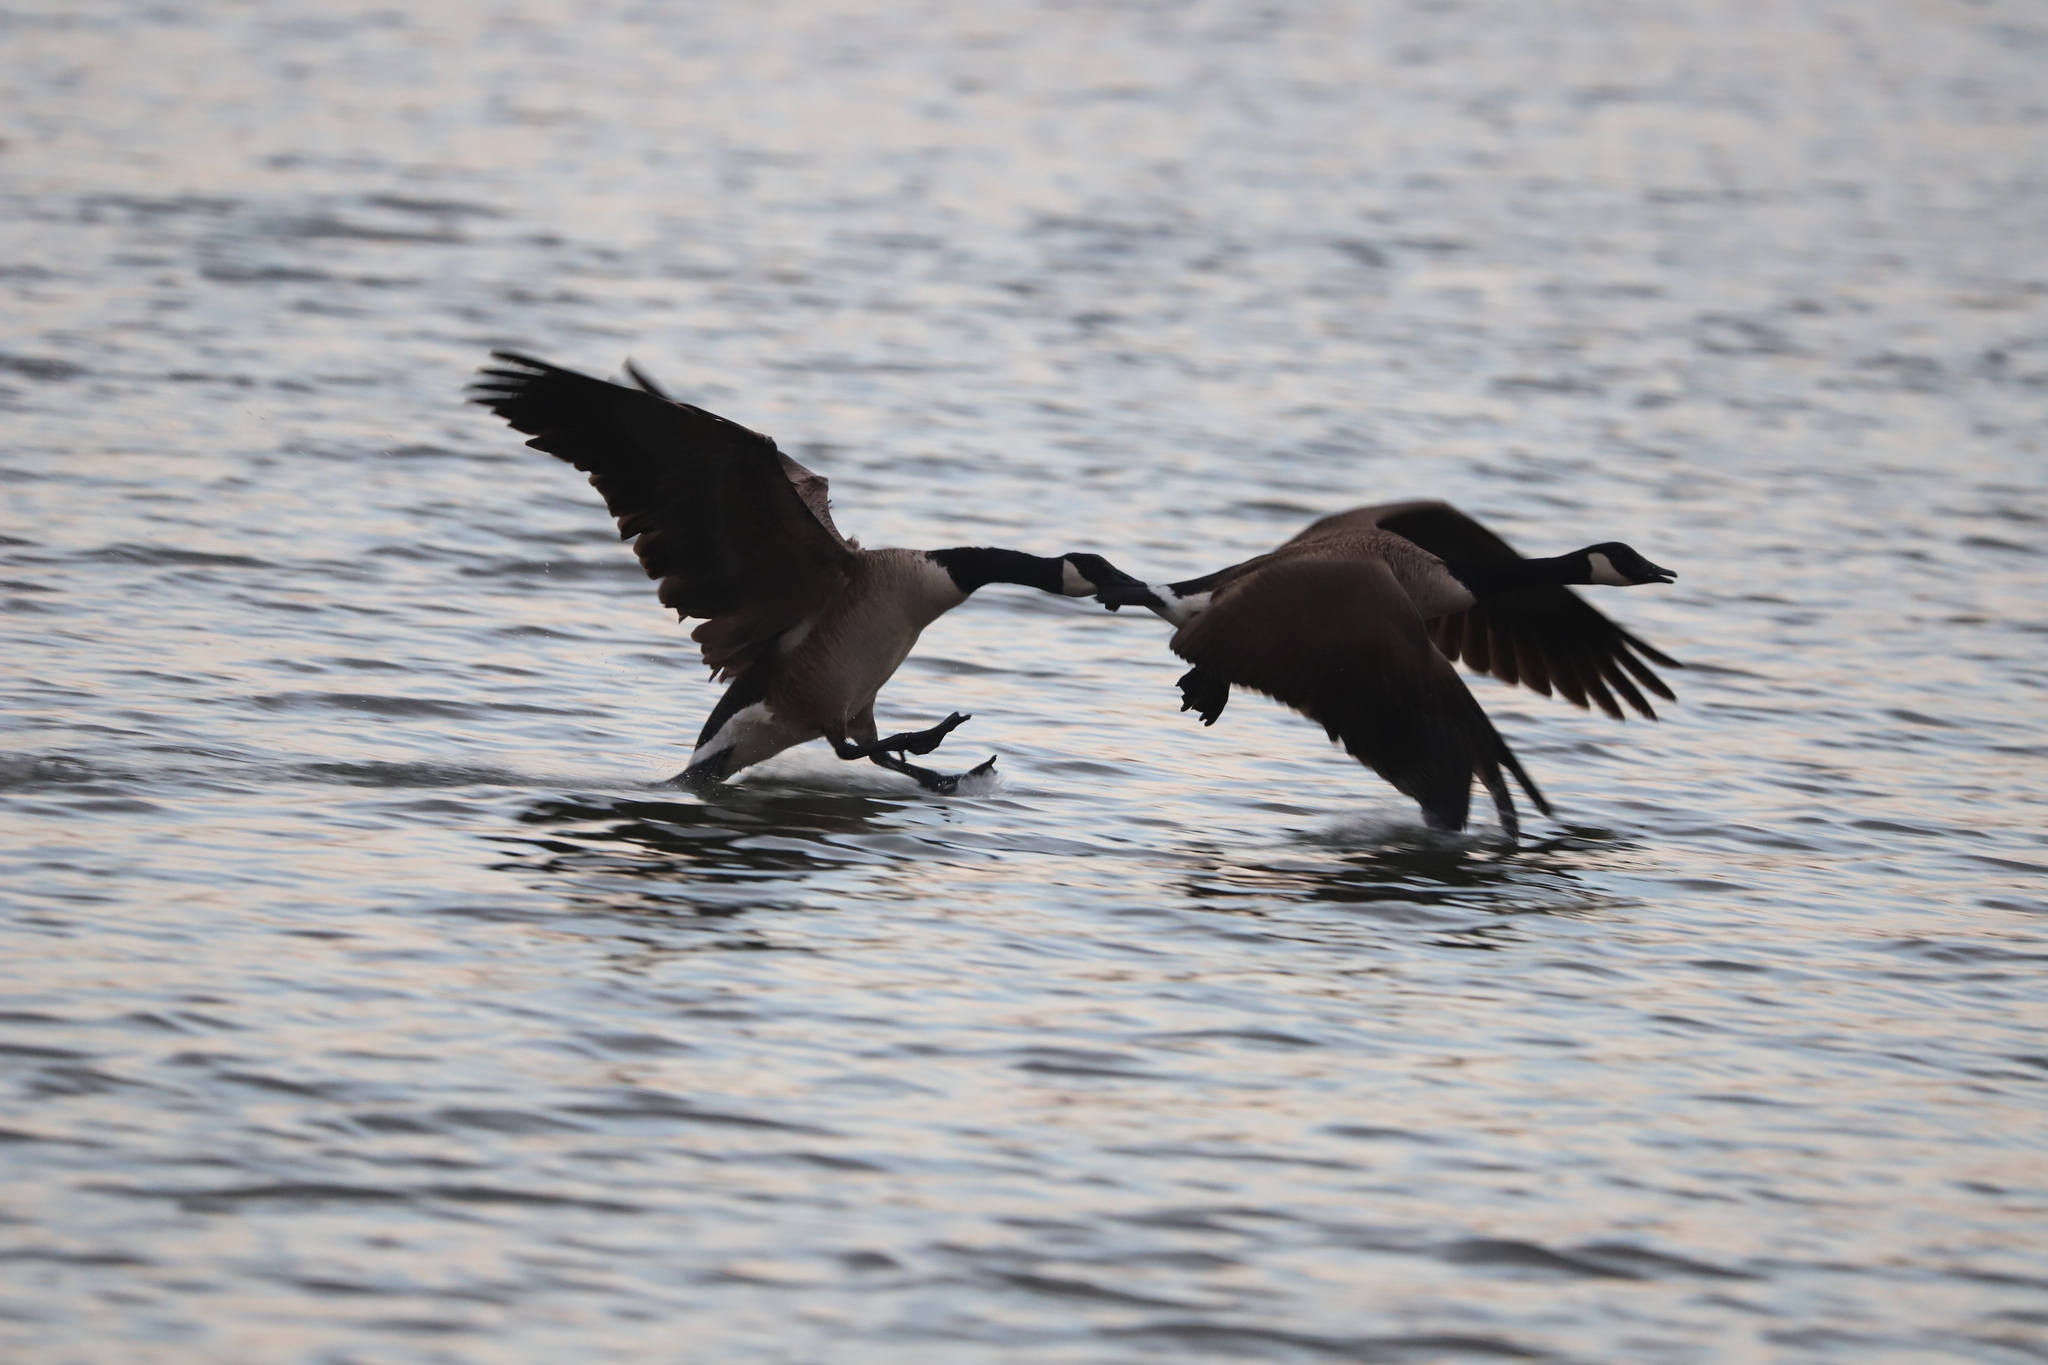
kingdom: Animalia
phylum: Chordata
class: Aves
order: Anseriformes
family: Anatidae
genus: Branta
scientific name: Branta canadensis
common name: Canada goose
